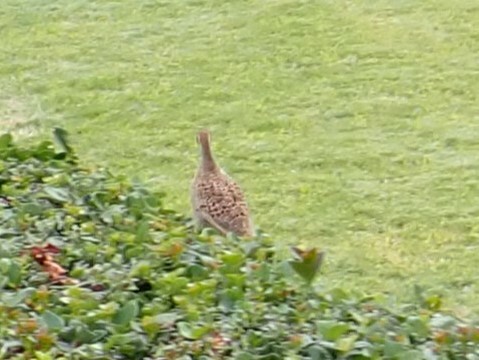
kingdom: Animalia
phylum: Chordata
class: Aves
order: Galliformes
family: Phasianidae
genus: Ortygornis
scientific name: Ortygornis pondicerianus
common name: Grey francolin
